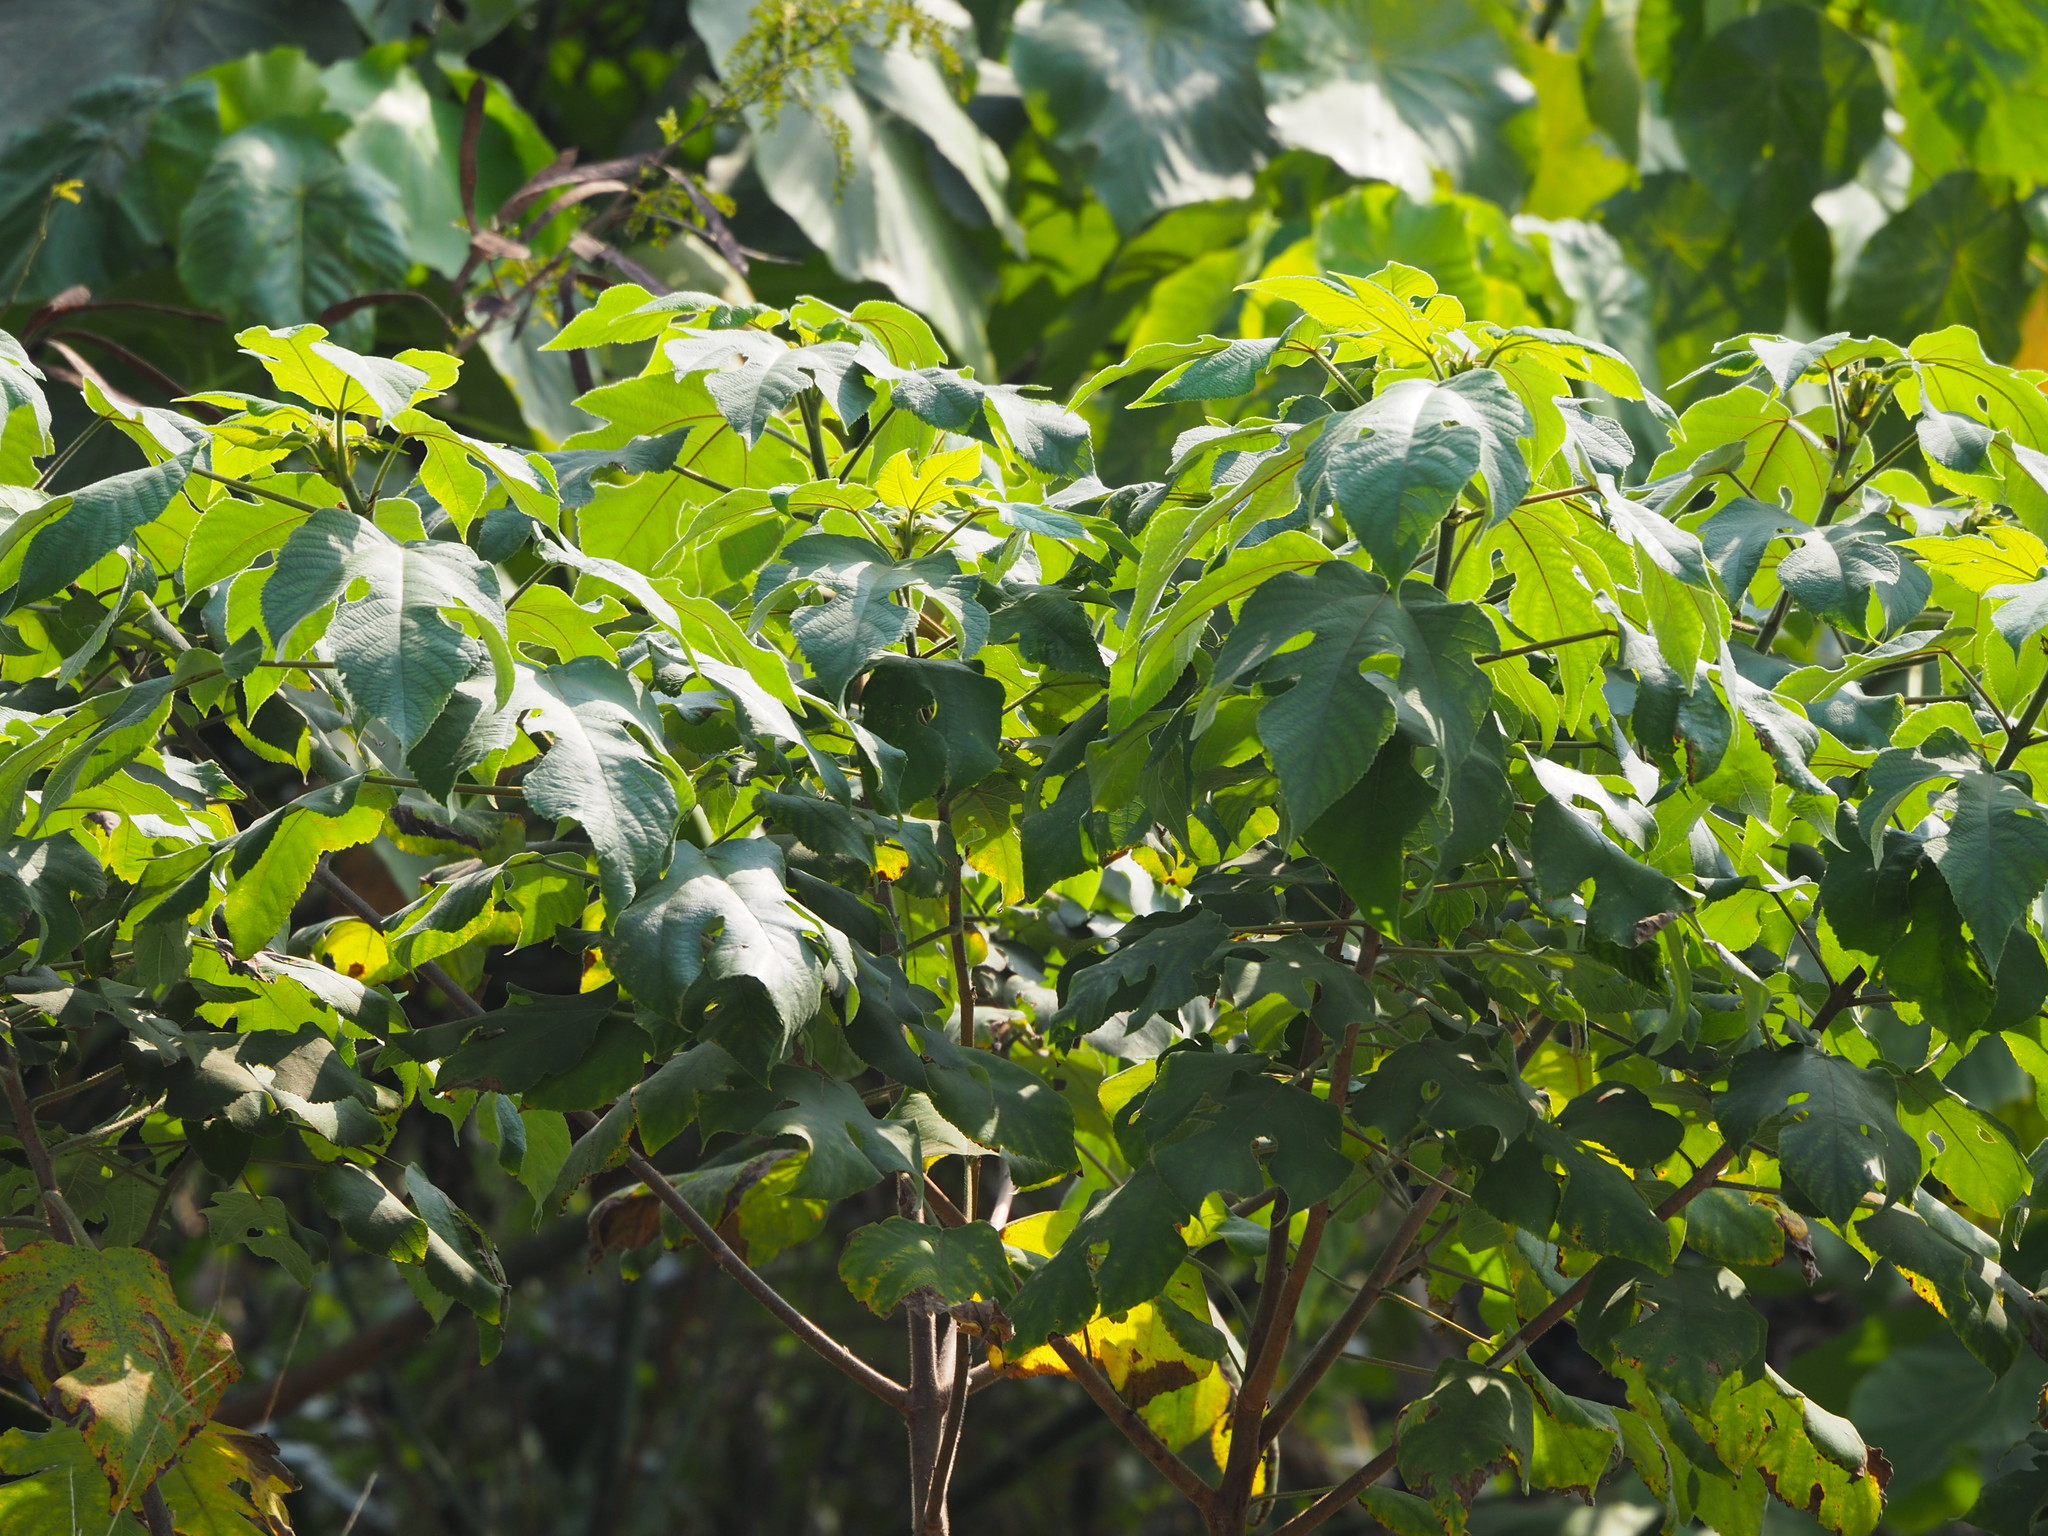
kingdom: Plantae
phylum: Tracheophyta
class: Magnoliopsida
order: Rosales
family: Moraceae
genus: Broussonetia
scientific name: Broussonetia papyrifera
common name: Paper mulberry
